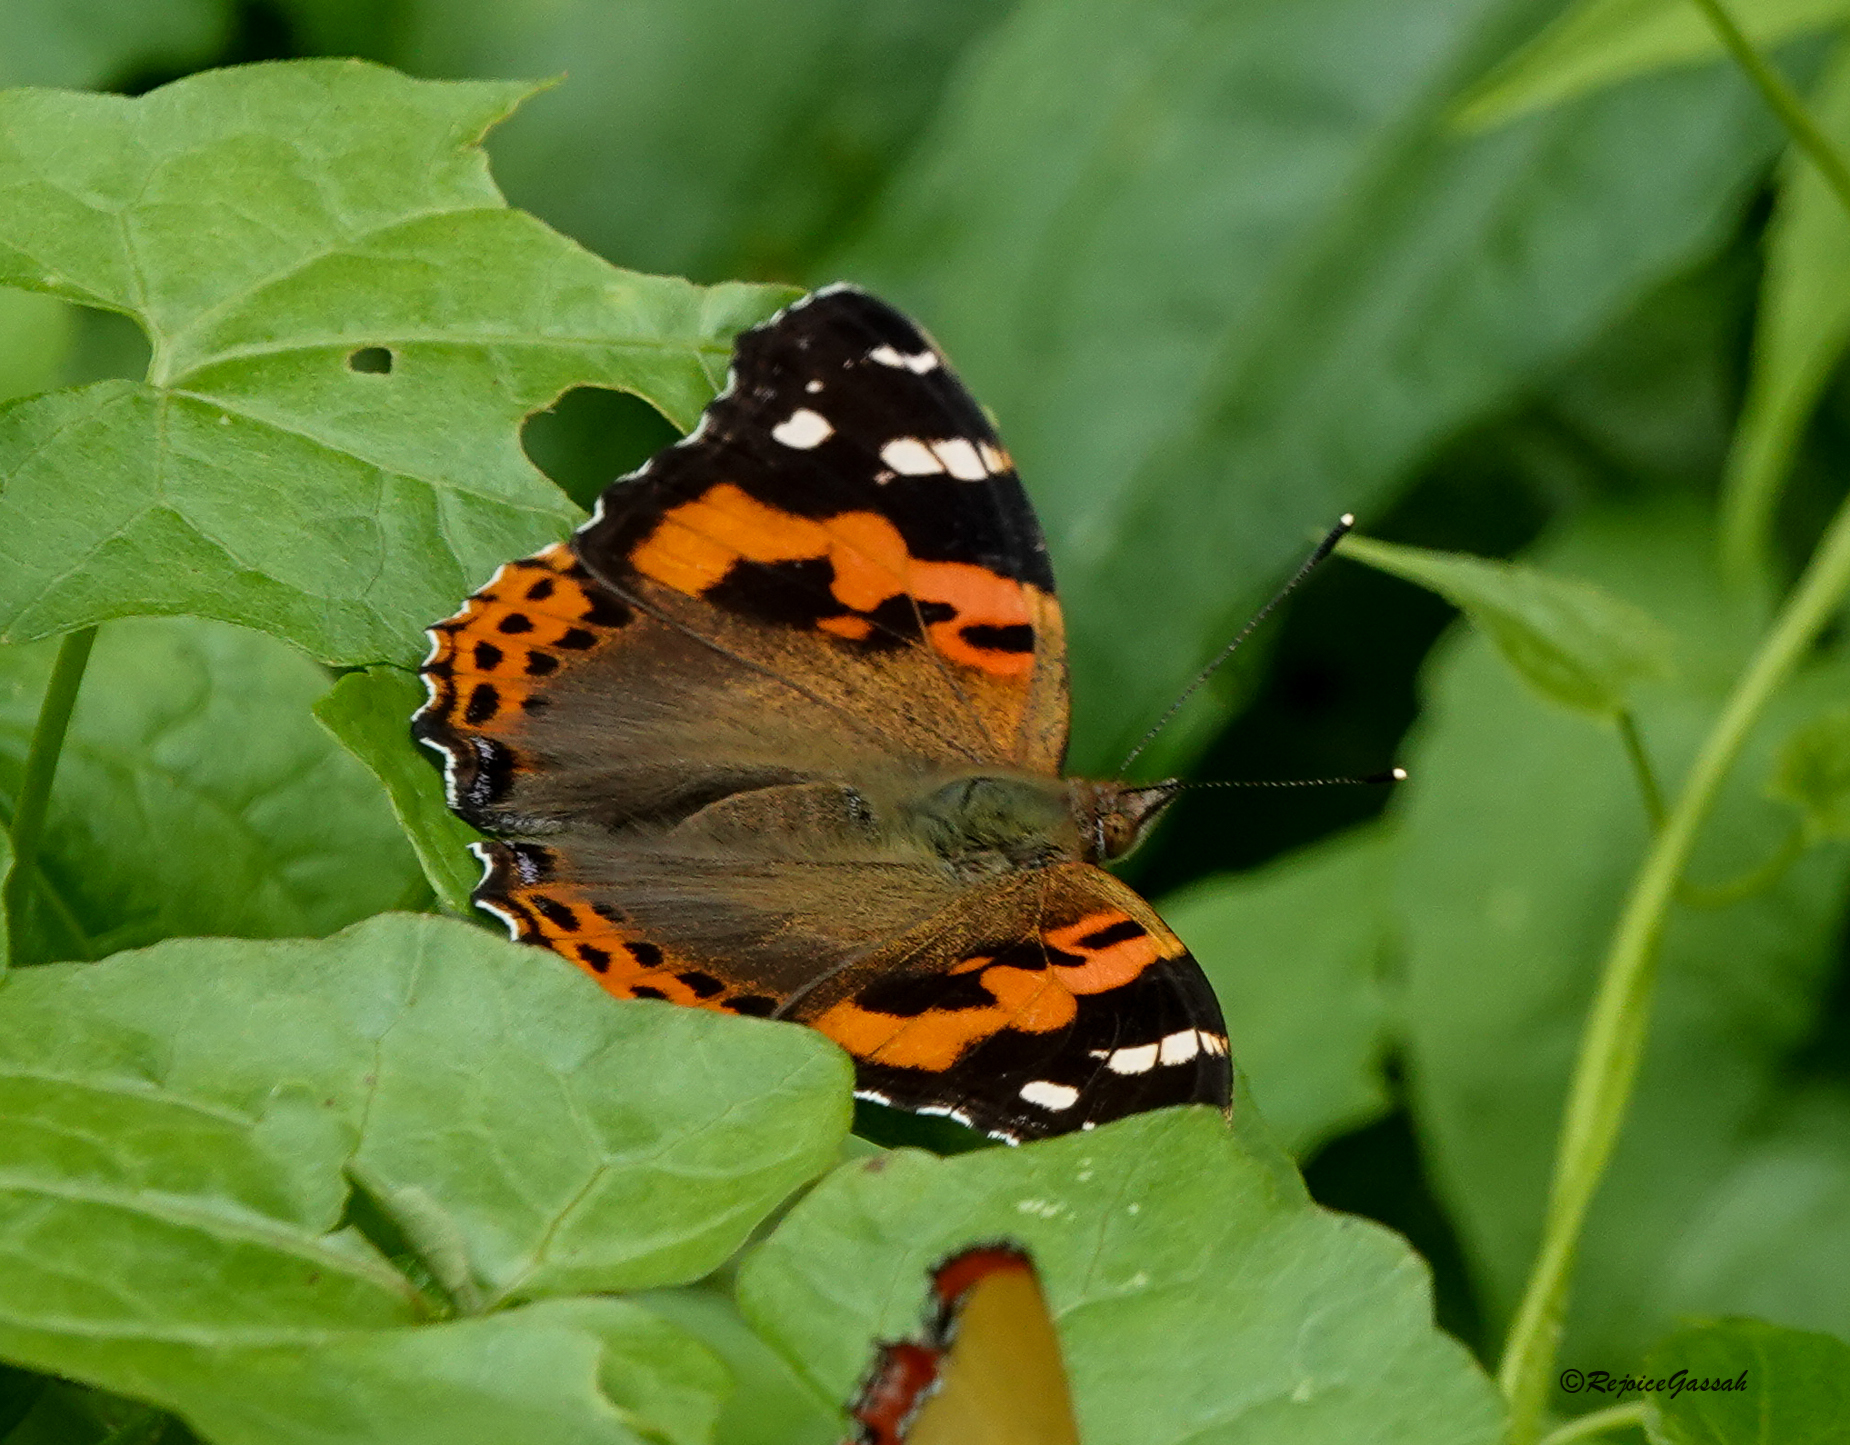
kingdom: Animalia
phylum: Arthropoda
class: Insecta
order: Lepidoptera
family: Nymphalidae
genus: Vanessa
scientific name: Vanessa indica
